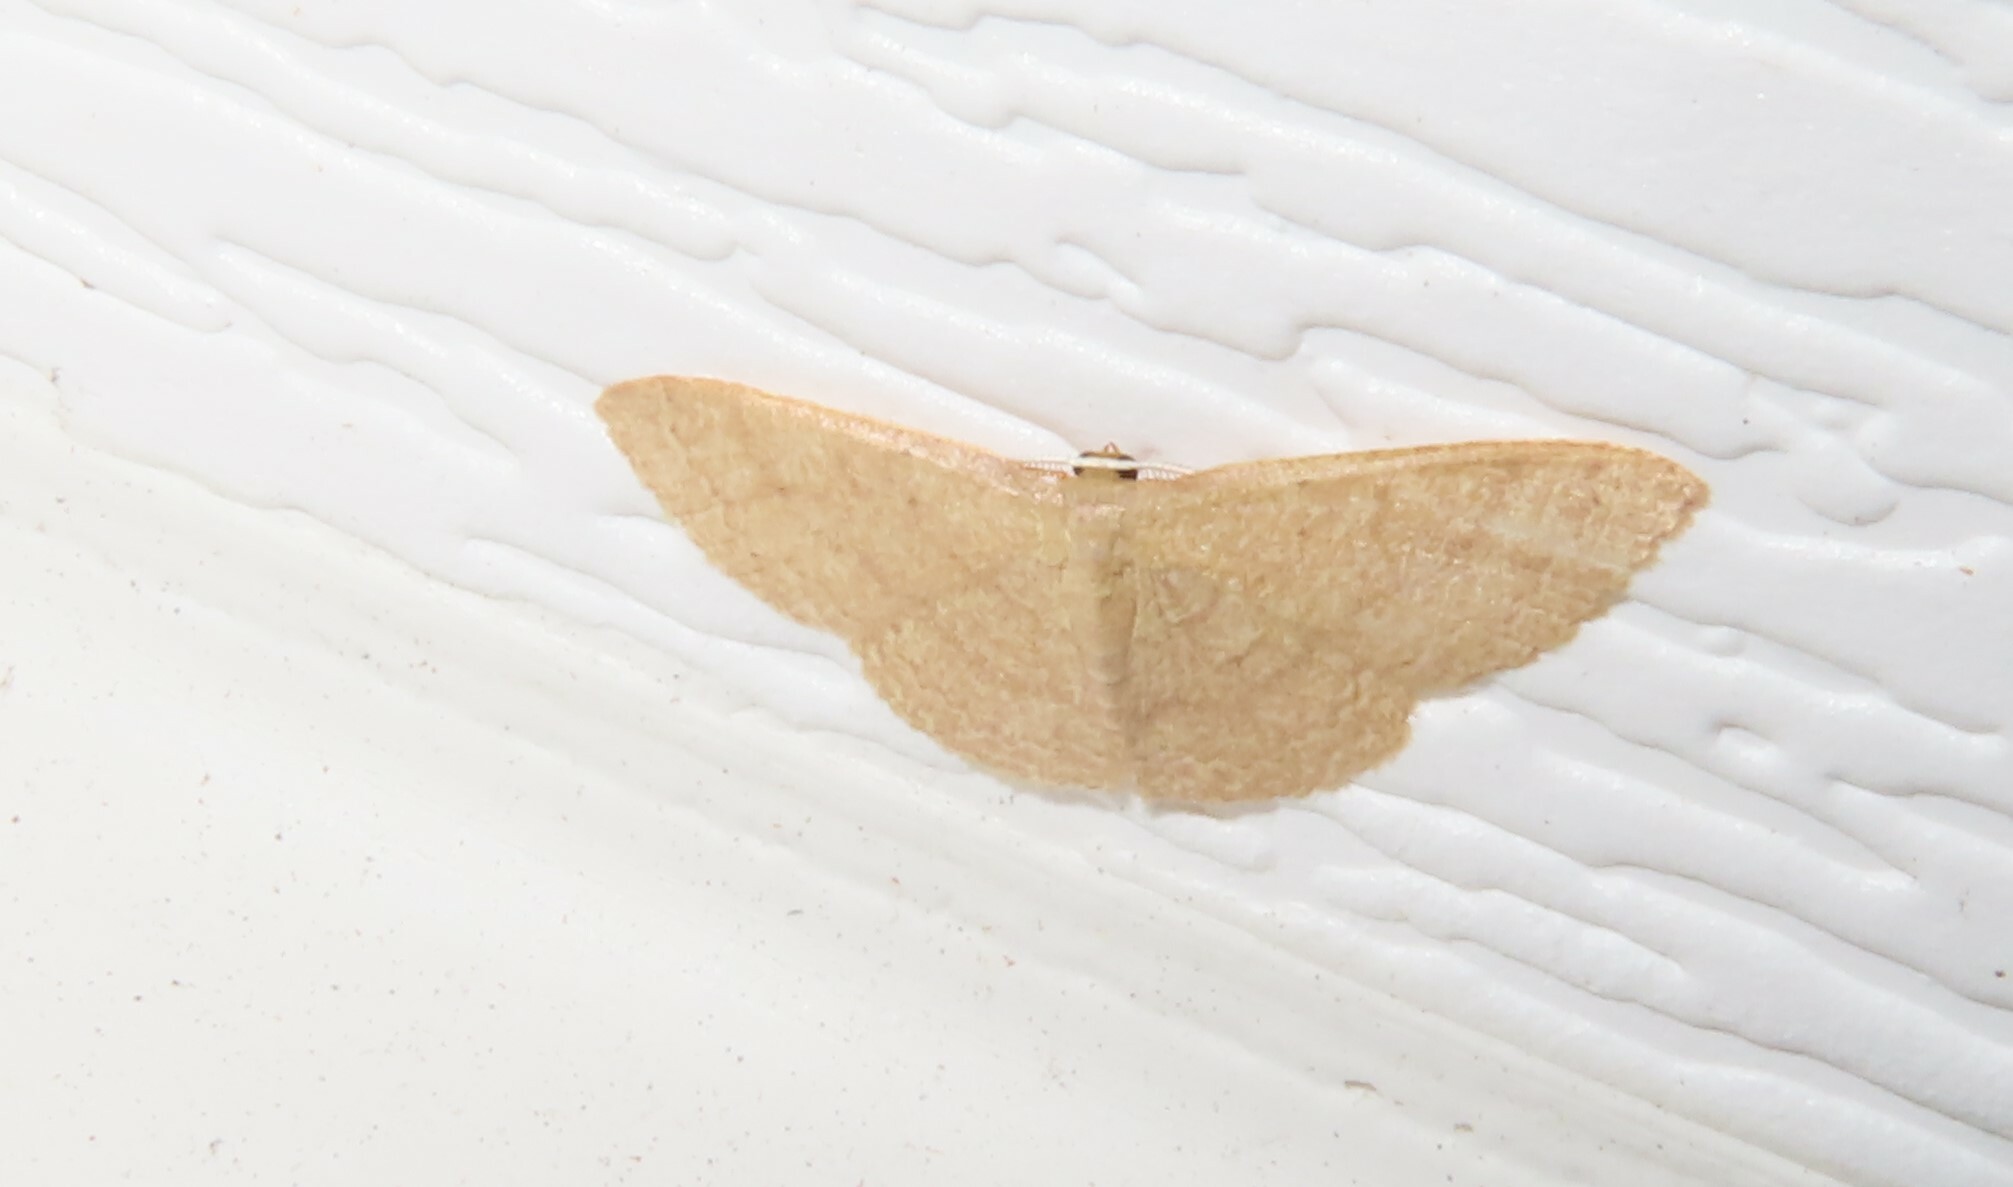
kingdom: Animalia
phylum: Arthropoda
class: Insecta
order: Lepidoptera
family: Geometridae
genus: Pleuroprucha
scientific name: Pleuroprucha insulsaria
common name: Common tan wave
